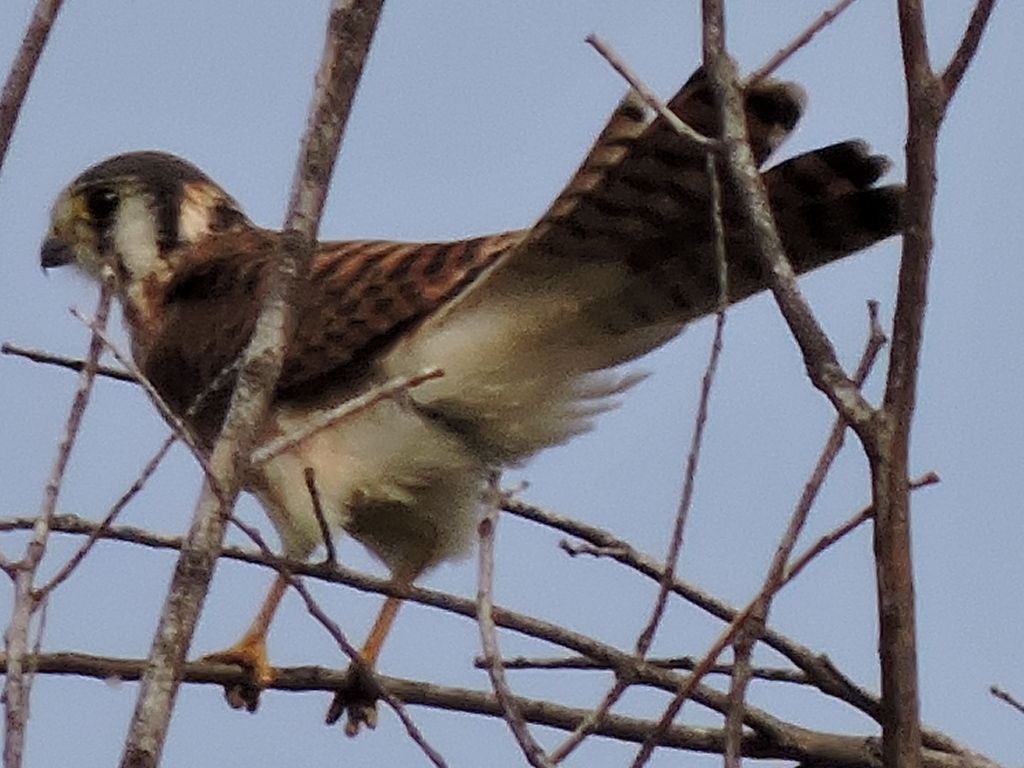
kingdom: Animalia
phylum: Chordata
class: Aves
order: Falconiformes
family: Falconidae
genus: Falco
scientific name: Falco sparverius
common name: American kestrel
